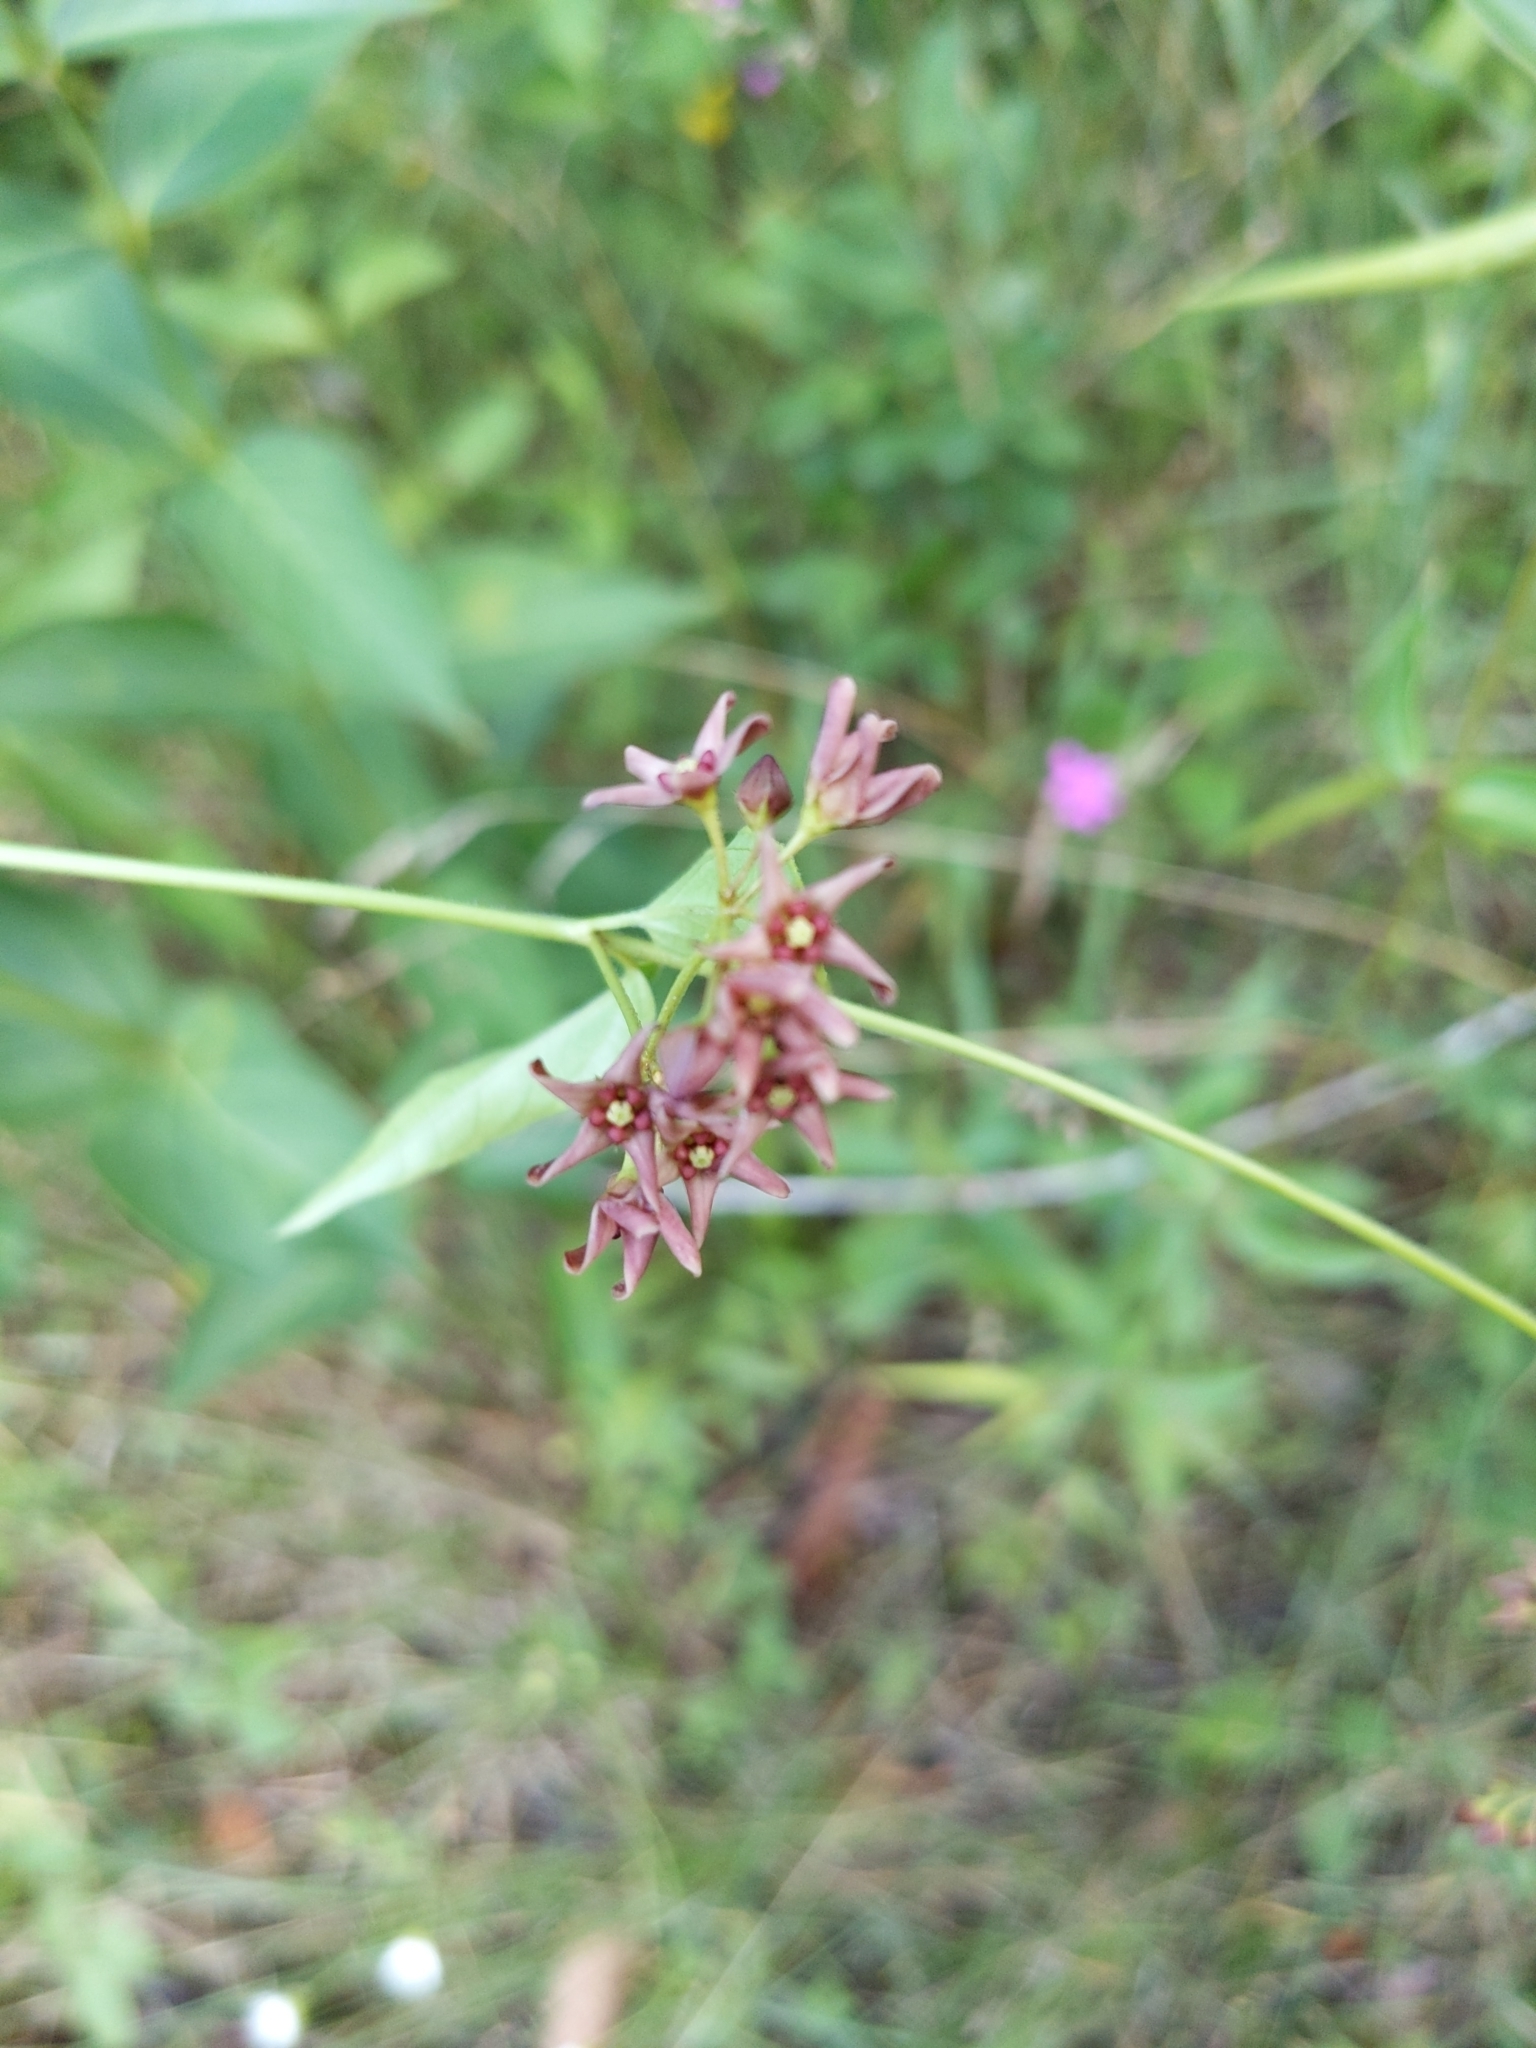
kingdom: Plantae
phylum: Tracheophyta
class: Magnoliopsida
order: Gentianales
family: Apocynaceae
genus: Vincetoxicum
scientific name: Vincetoxicum rossicum
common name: Dog-strangling vine
